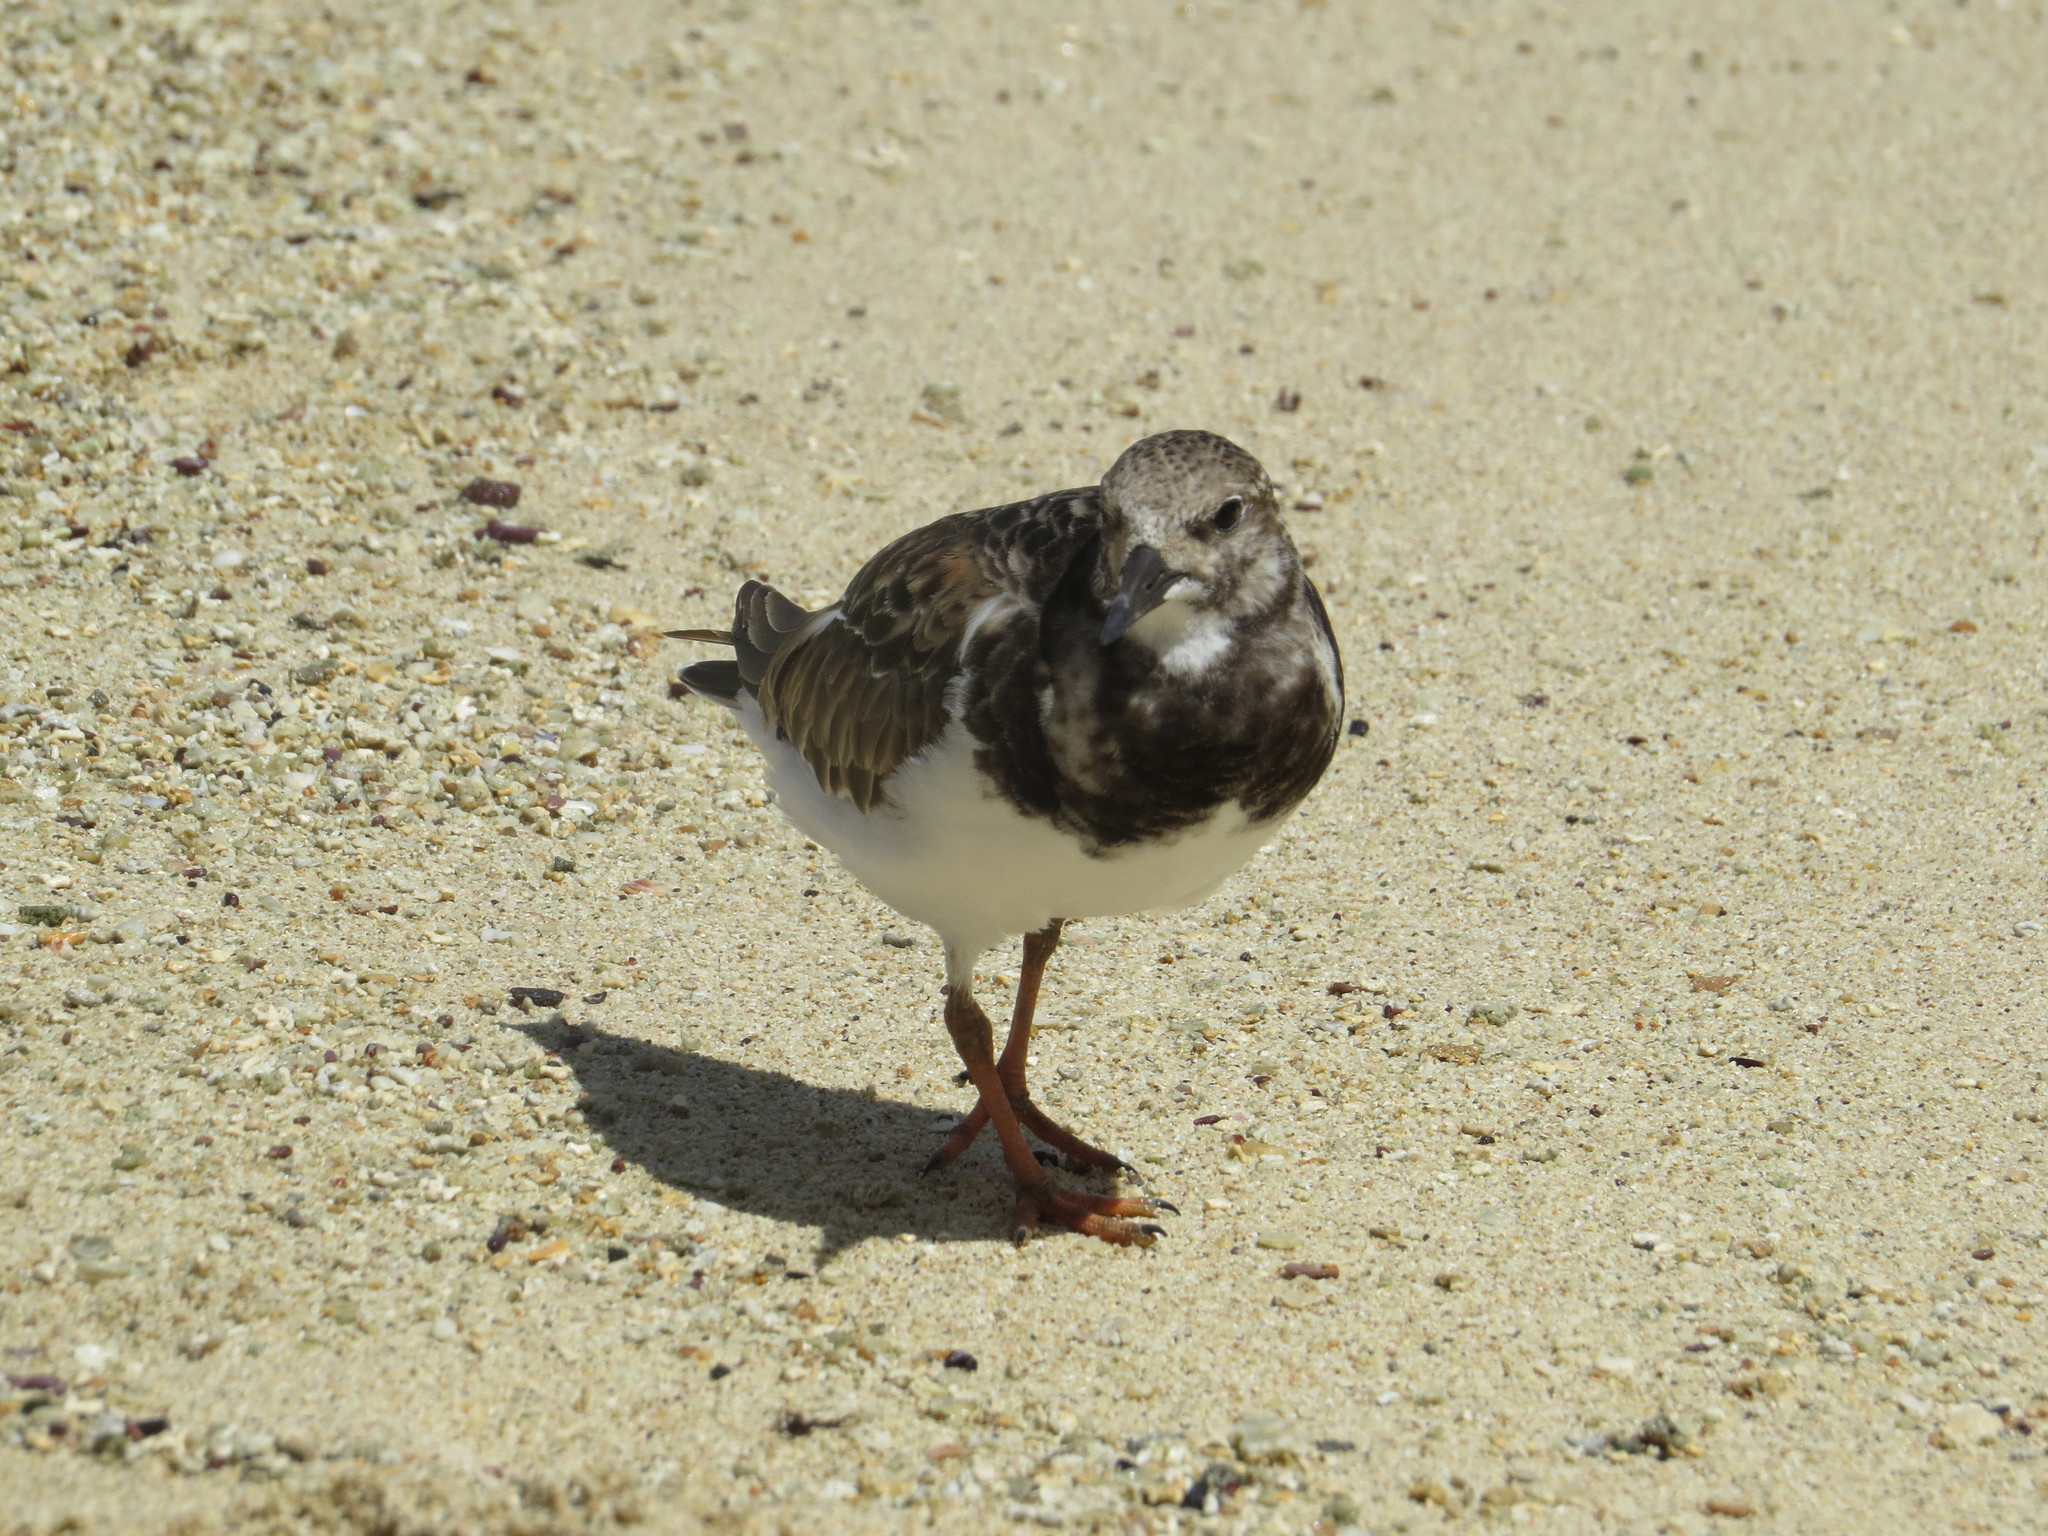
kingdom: Animalia
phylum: Chordata
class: Aves
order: Charadriiformes
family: Scolopacidae
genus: Arenaria
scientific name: Arenaria interpres
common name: Ruddy turnstone
